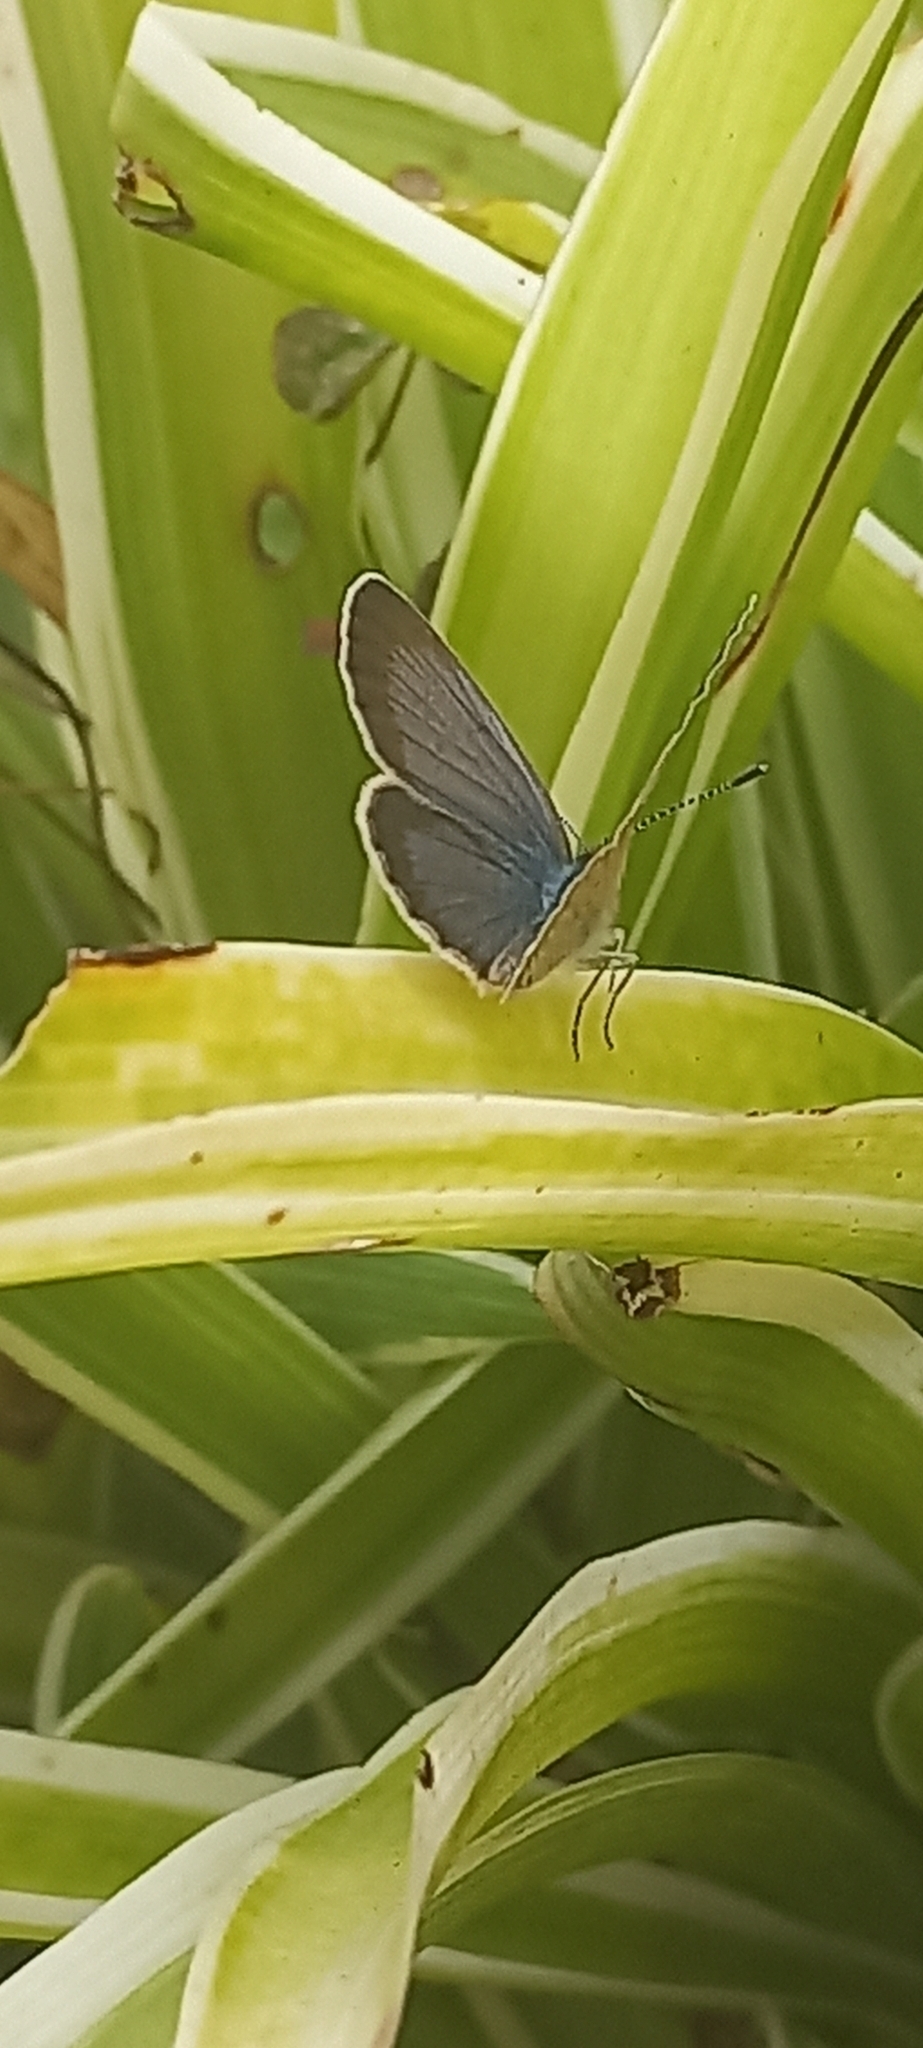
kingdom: Animalia
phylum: Arthropoda
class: Insecta
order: Lepidoptera
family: Lycaenidae
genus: Zizeeria
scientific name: Zizeeria knysna
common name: African grass blue
